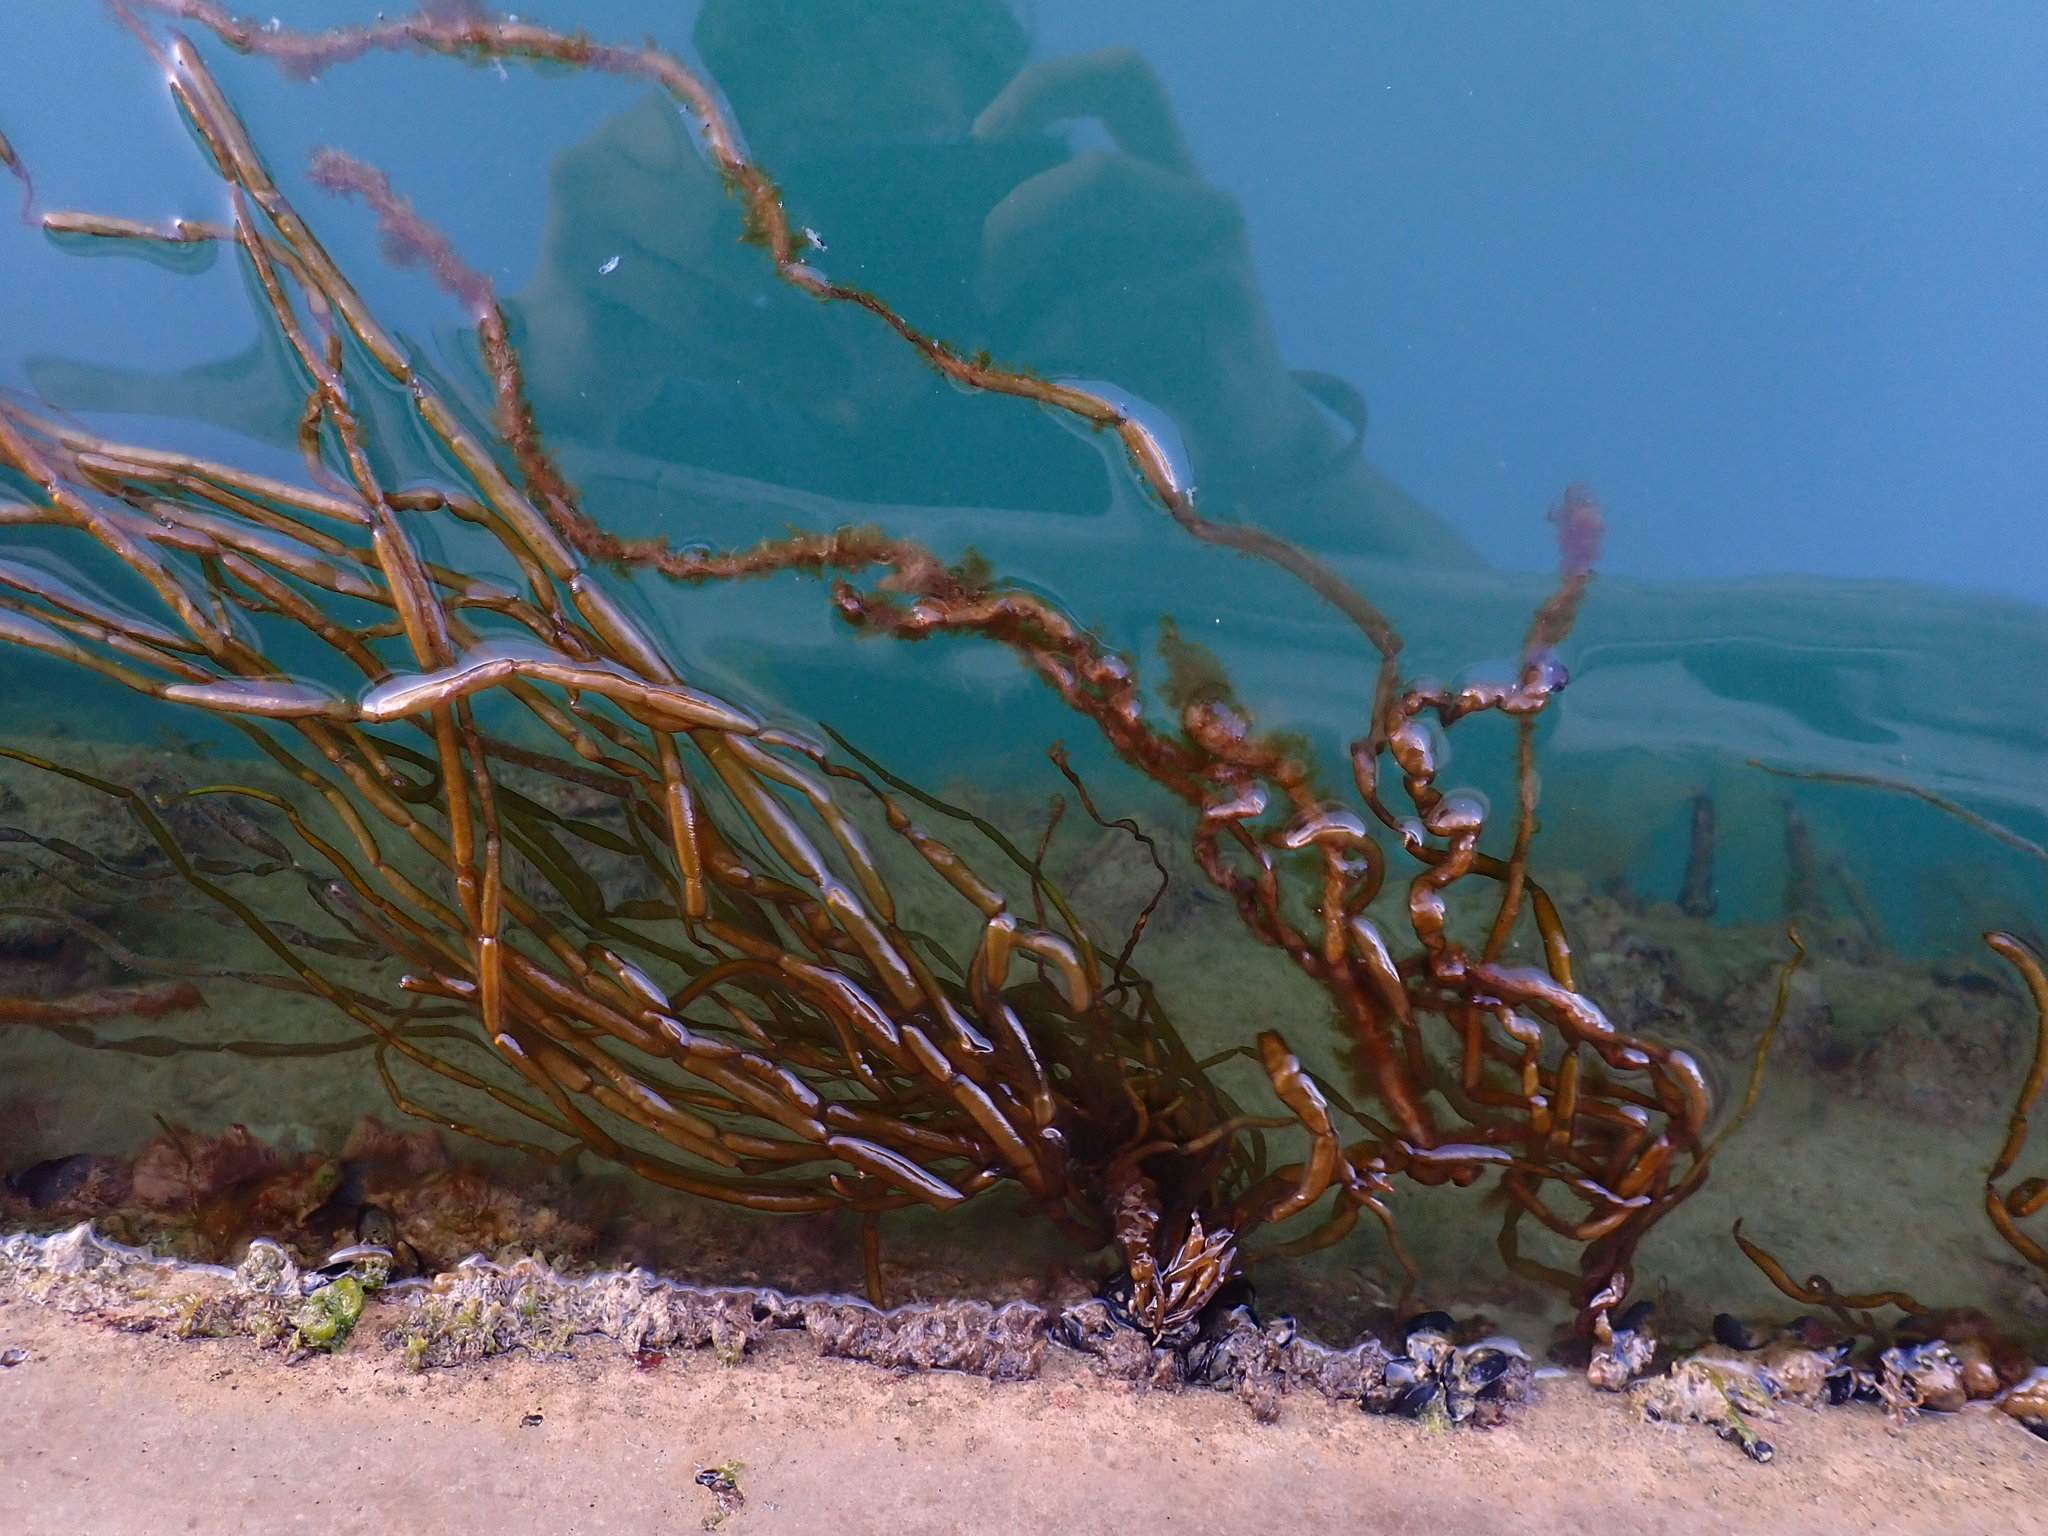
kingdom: Chromista
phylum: Ochrophyta
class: Phaeophyceae
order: Scytosiphonales
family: Scytosiphonaceae
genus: Scytosiphon
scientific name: Scytosiphon lomentaria
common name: Beanweed
